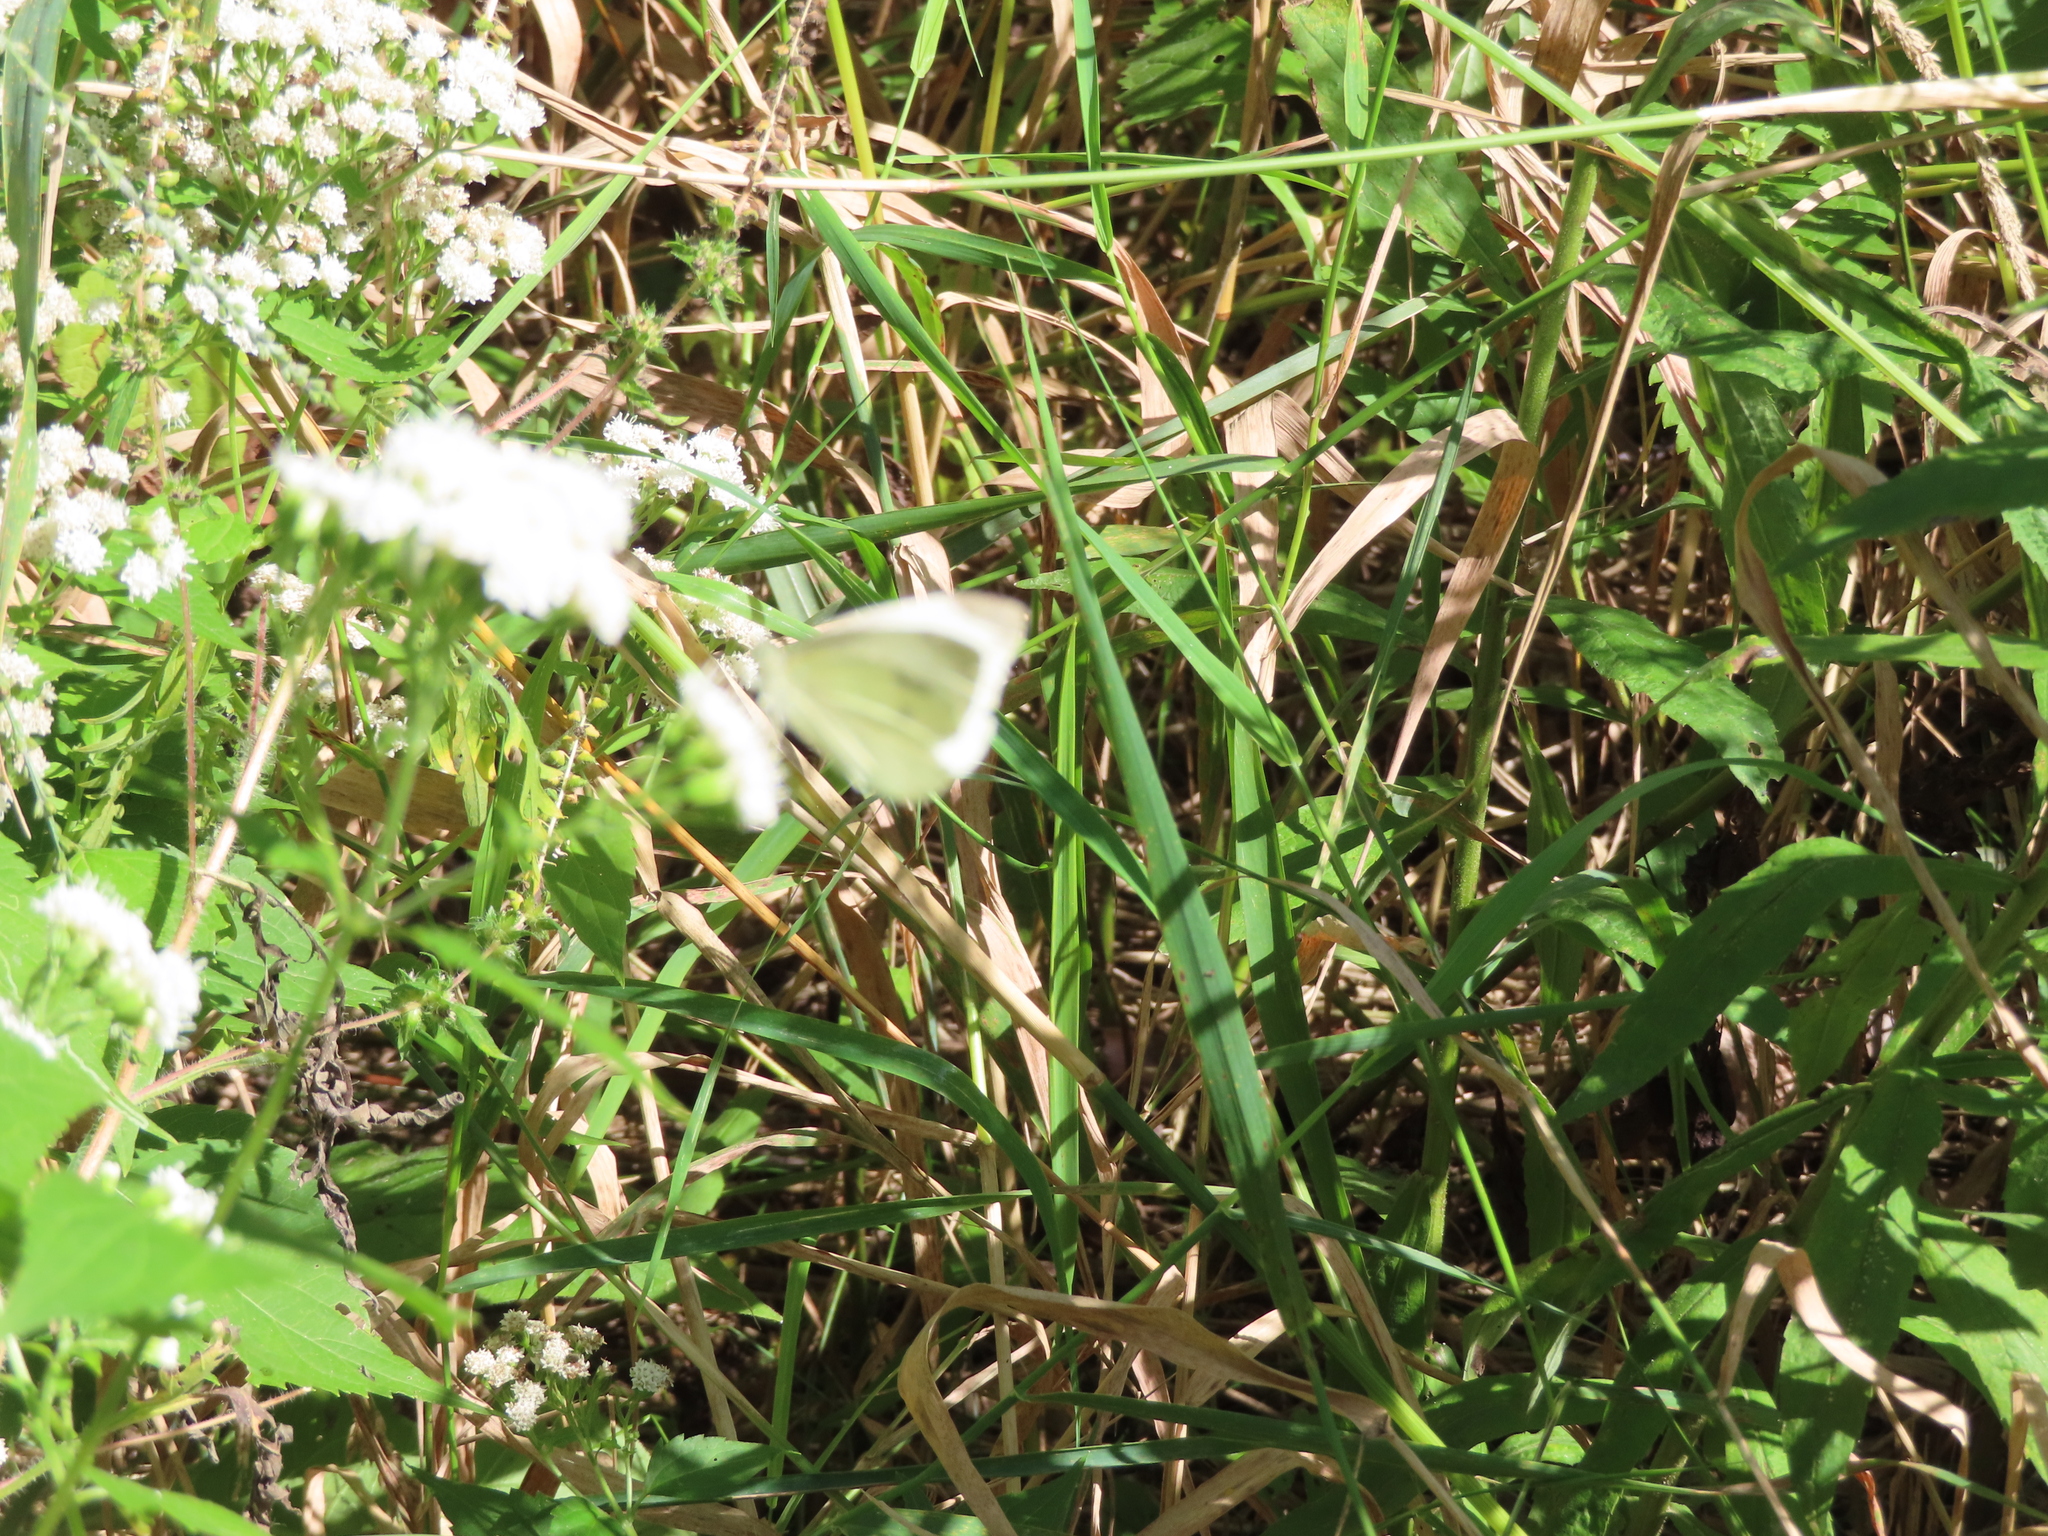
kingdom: Animalia
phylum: Arthropoda
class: Insecta
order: Lepidoptera
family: Pieridae
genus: Pieris
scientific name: Pieris rapae
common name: Small white
